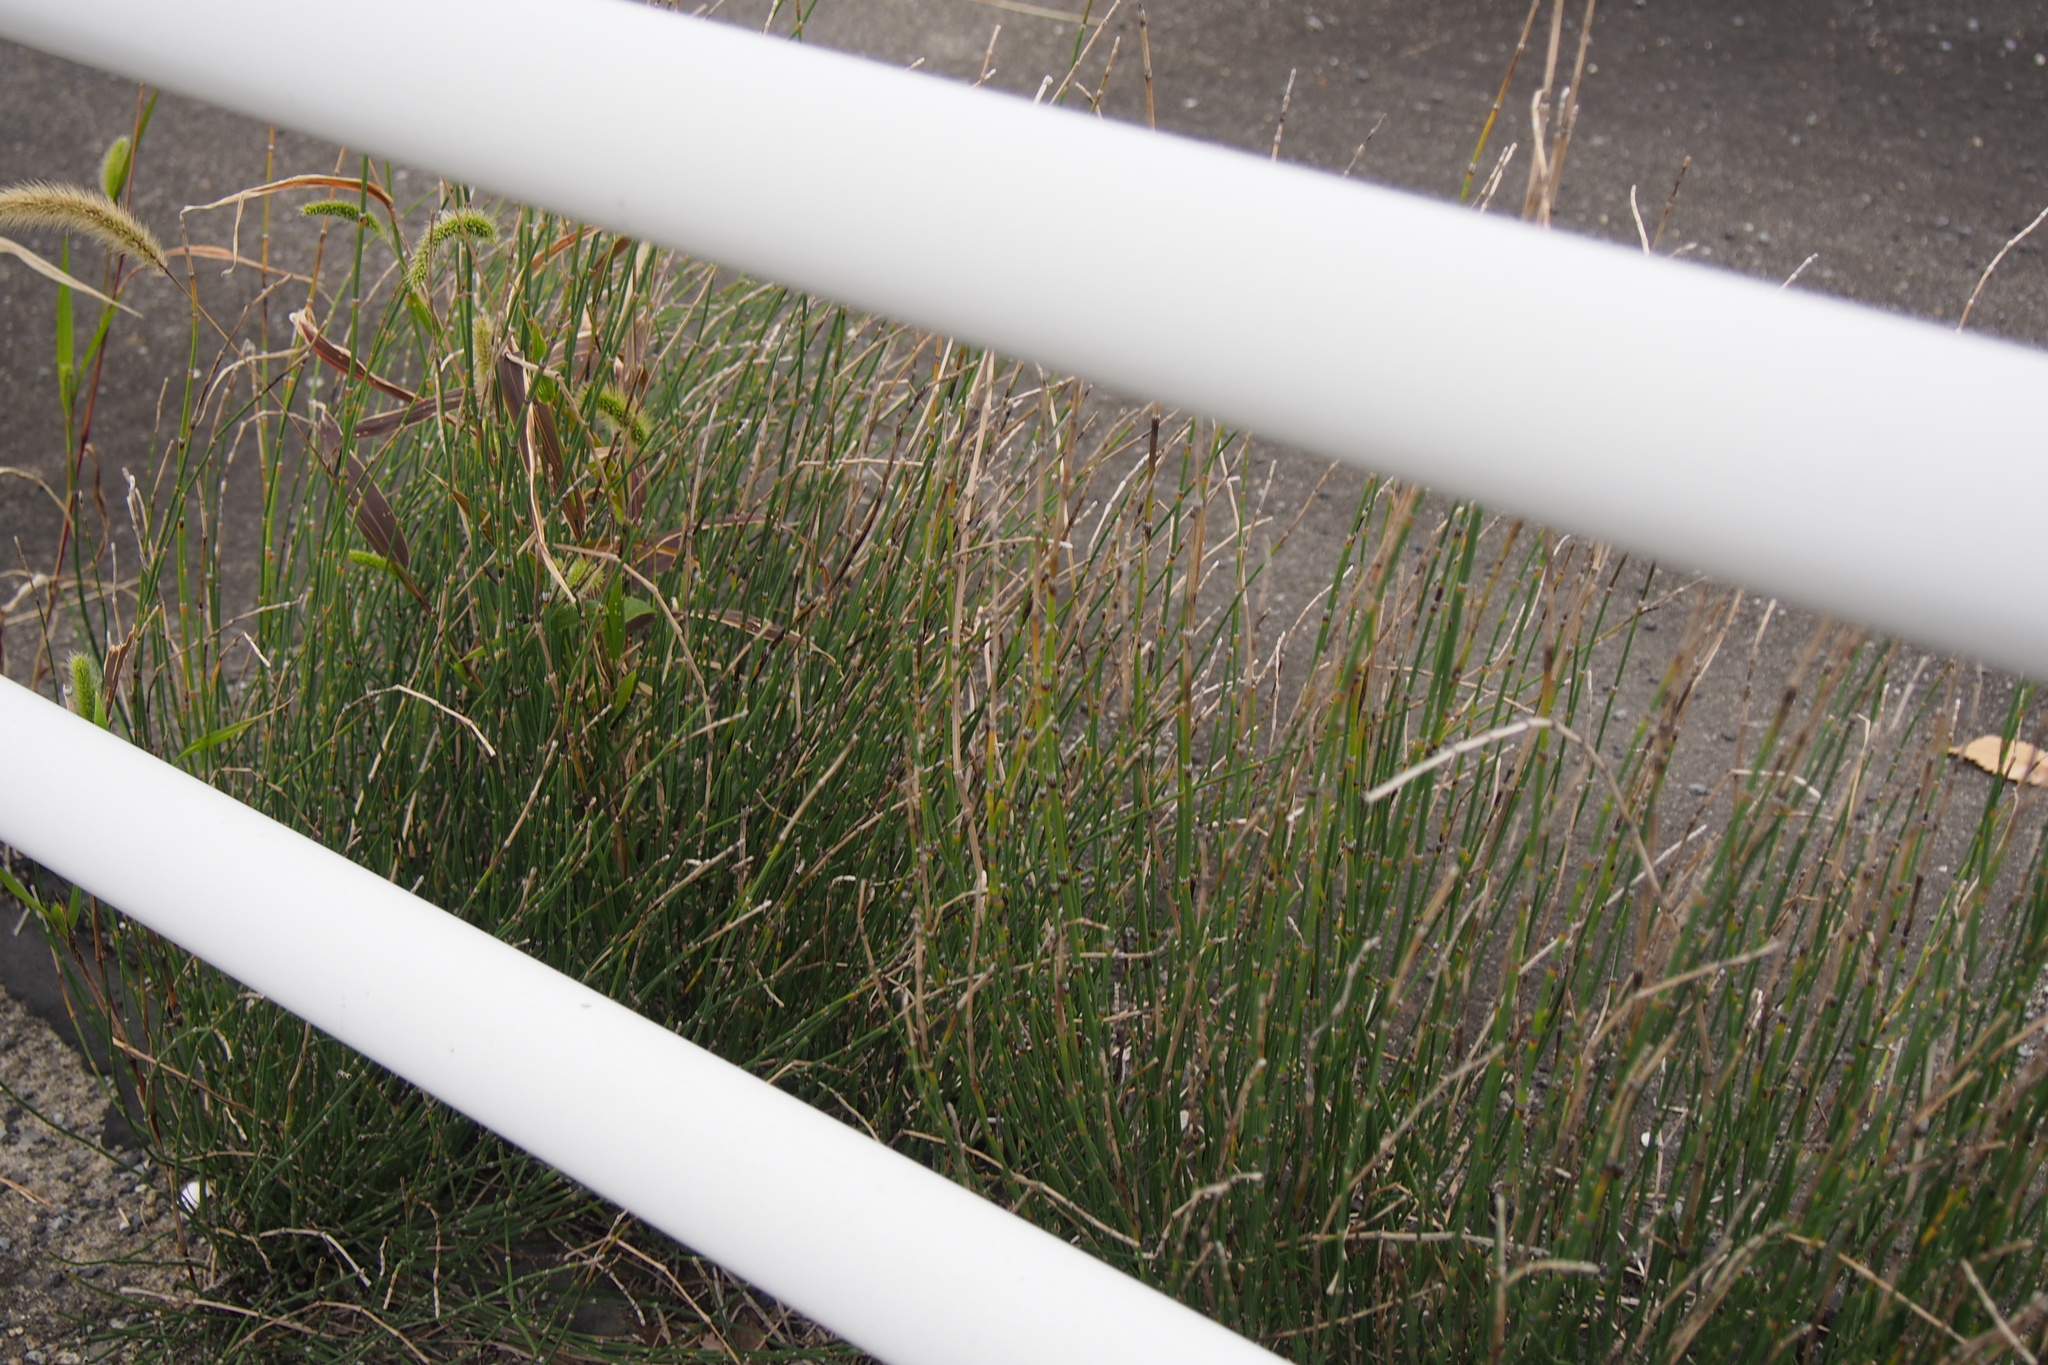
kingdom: Plantae
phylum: Tracheophyta
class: Polypodiopsida
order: Equisetales
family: Equisetaceae
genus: Equisetum
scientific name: Equisetum ramosissimum
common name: Branched horsetail
